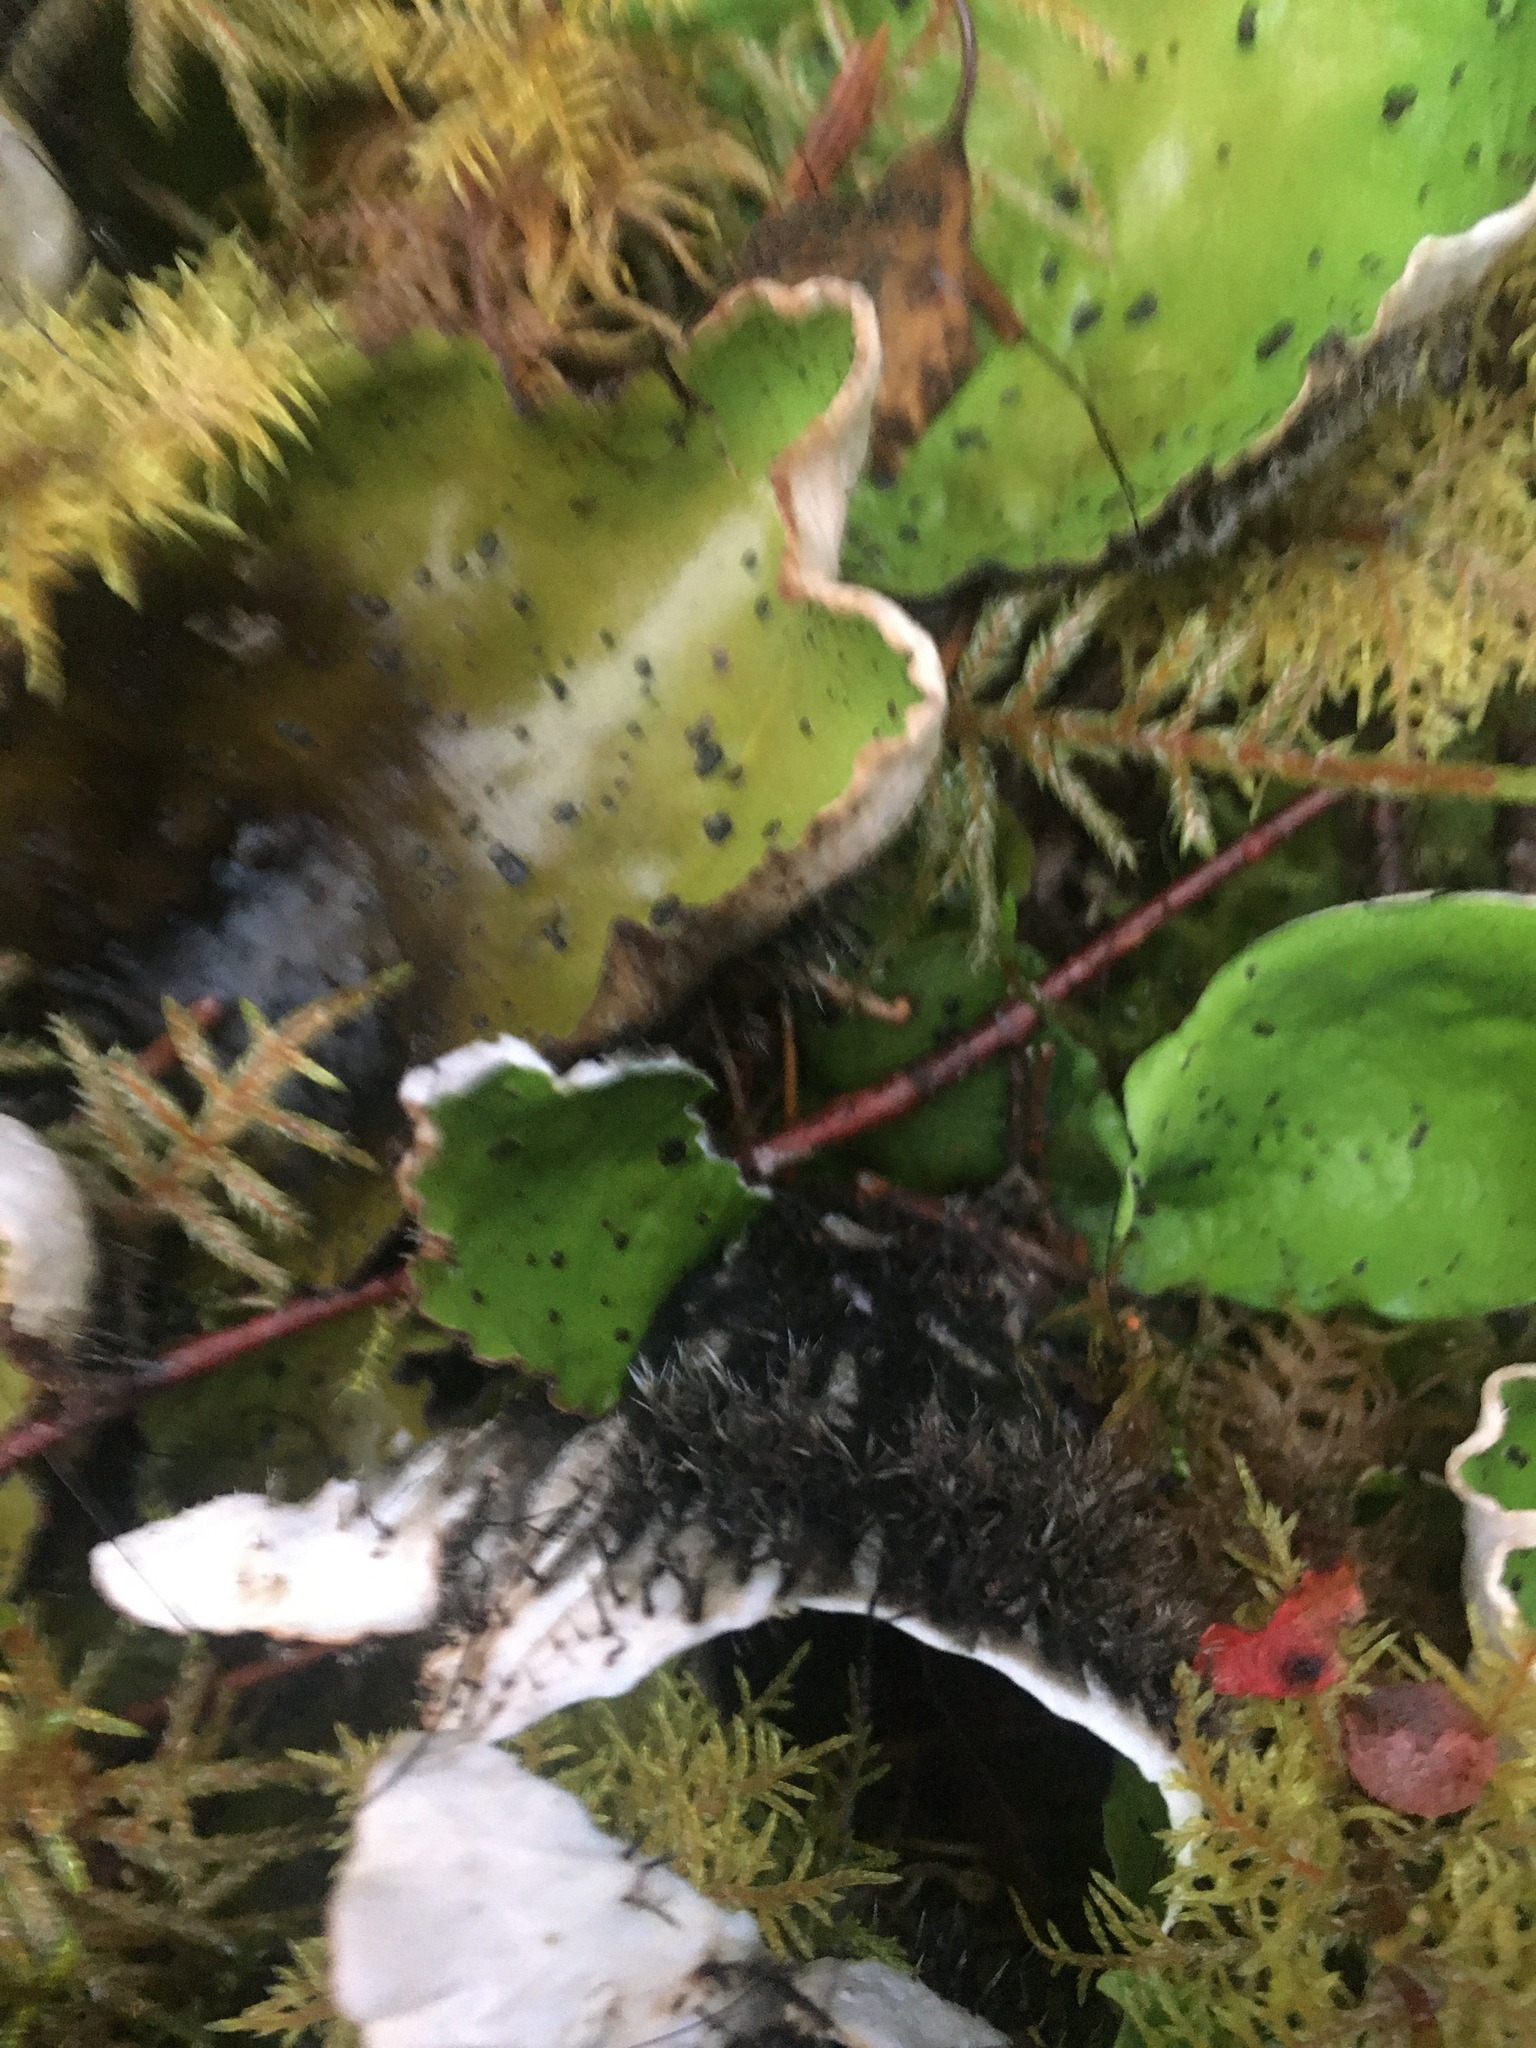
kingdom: Fungi
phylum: Ascomycota
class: Lecanoromycetes
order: Peltigerales
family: Peltigeraceae
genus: Peltigera
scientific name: Peltigera aphthosa
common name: Common freckle pelt lichen
